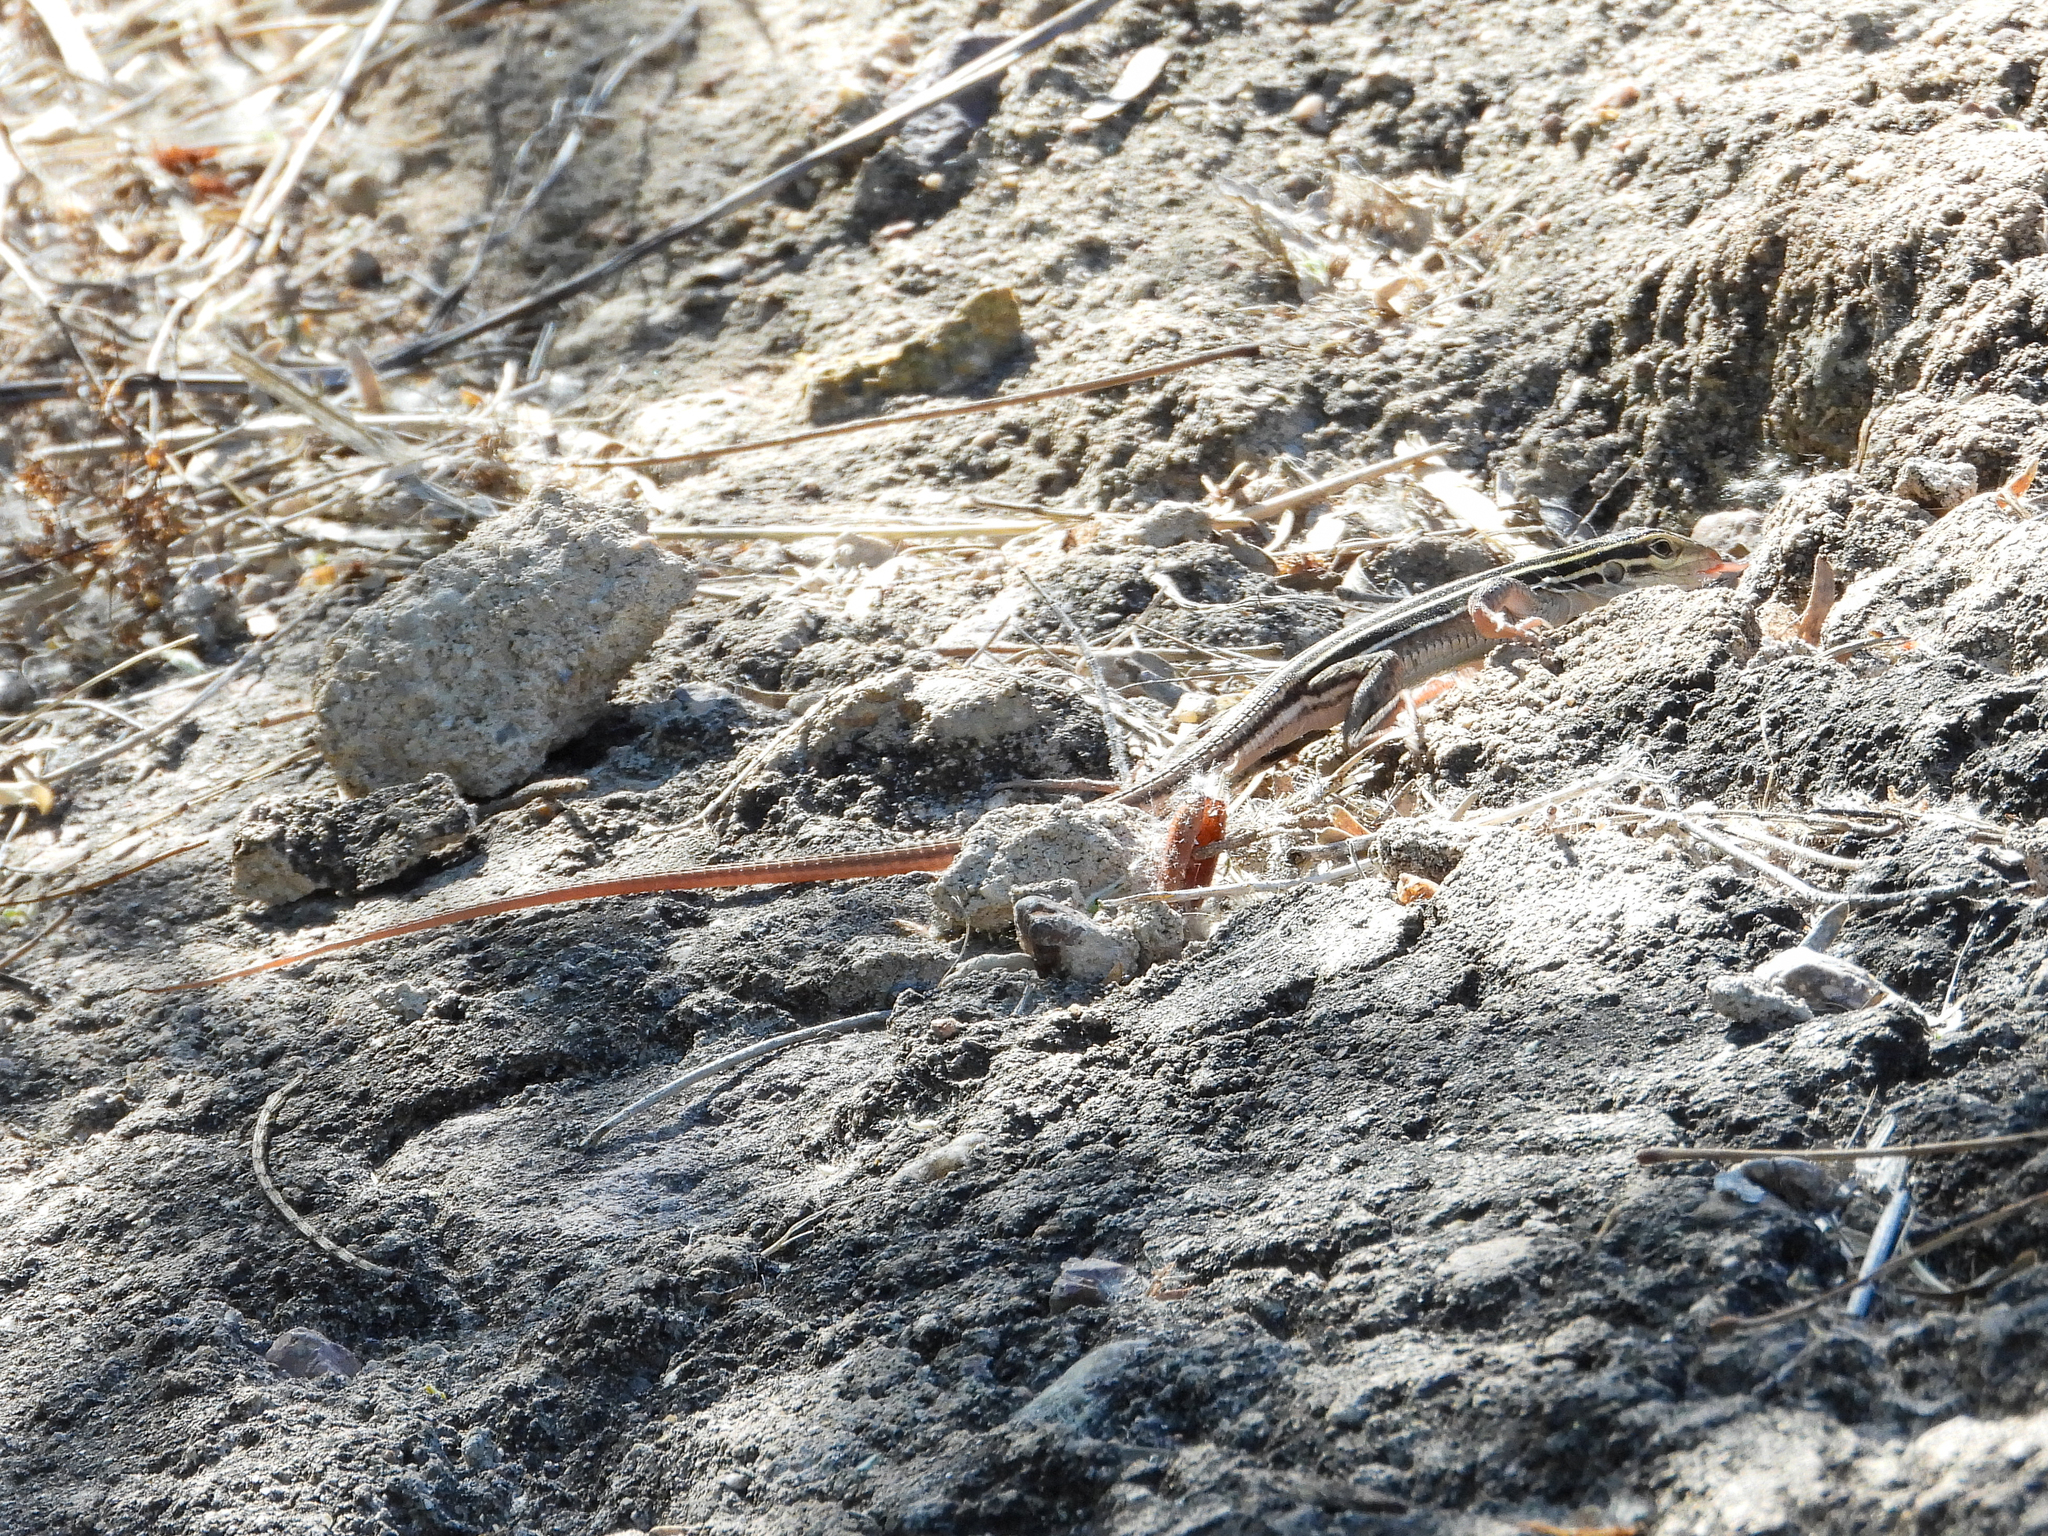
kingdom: Animalia
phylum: Chordata
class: Squamata
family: Teiidae
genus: Aspidoscelis
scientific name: Aspidoscelis sonorae
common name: Sonoran spotted whiptail
